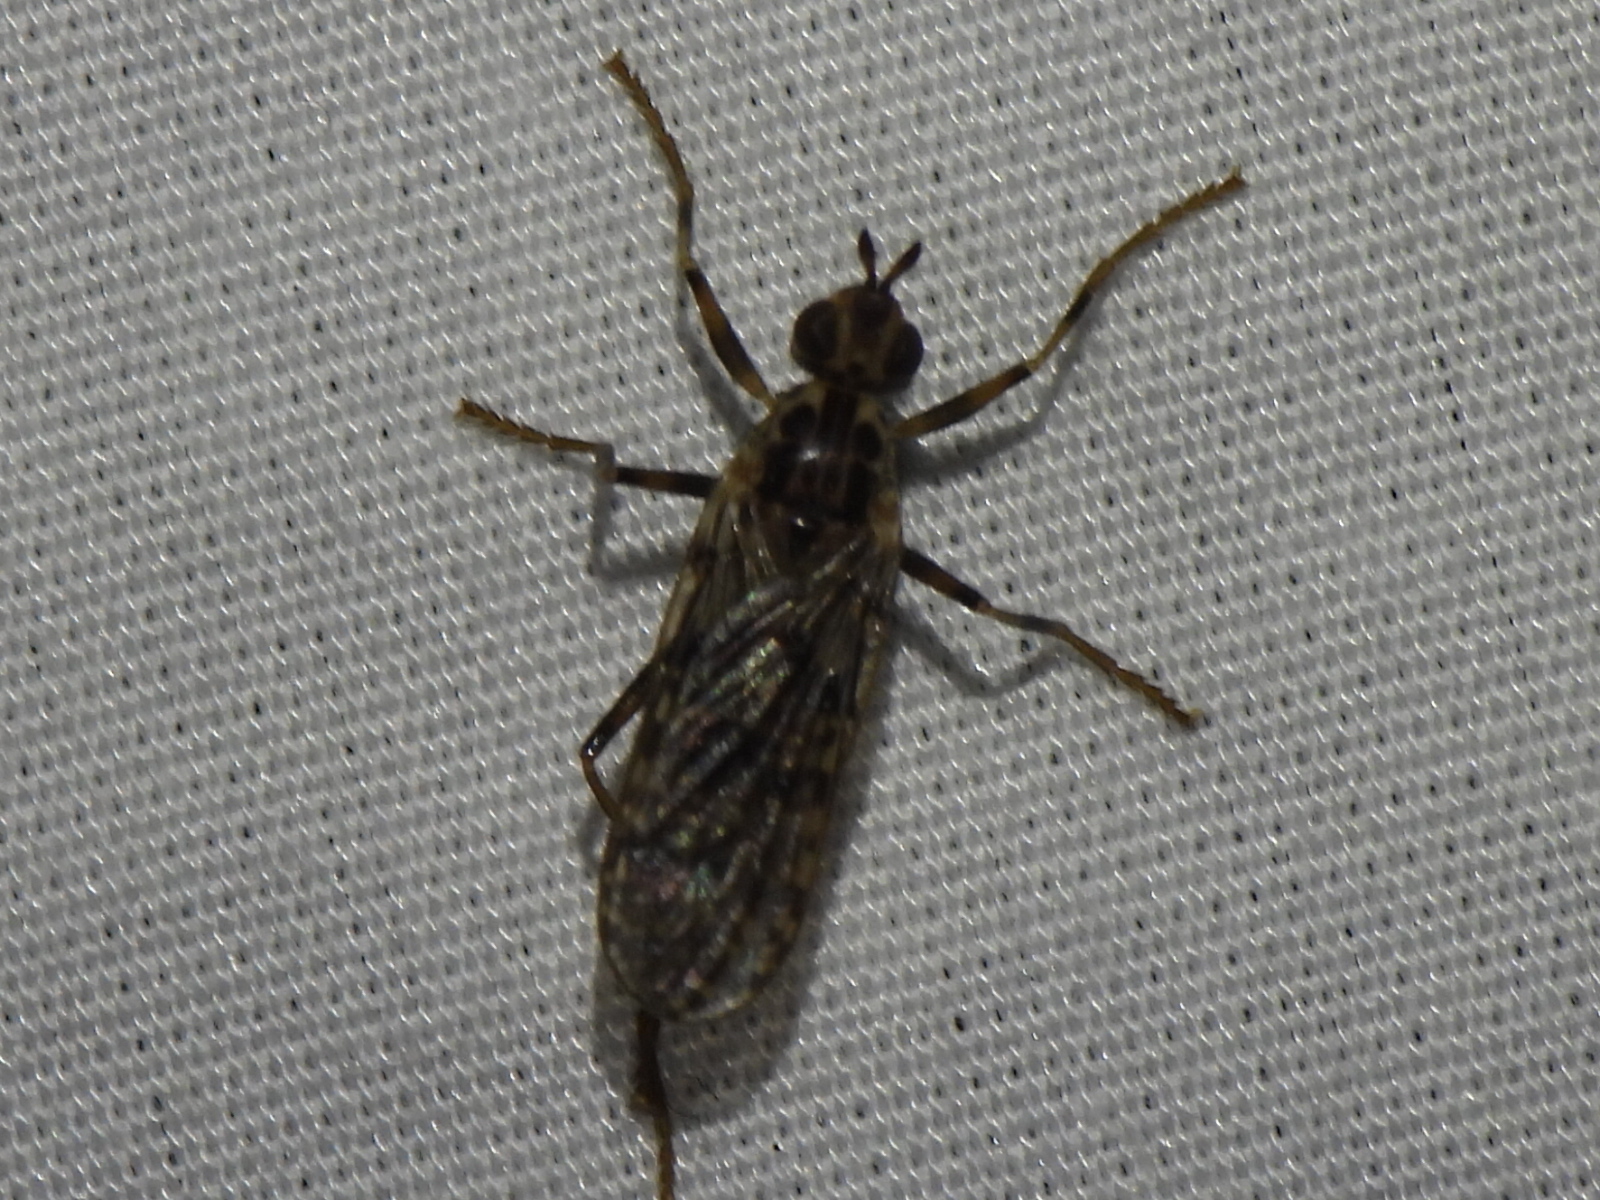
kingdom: Animalia
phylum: Arthropoda
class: Insecta
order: Diptera
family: Pyrgotidae
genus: Boreothrinax
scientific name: Boreothrinax
